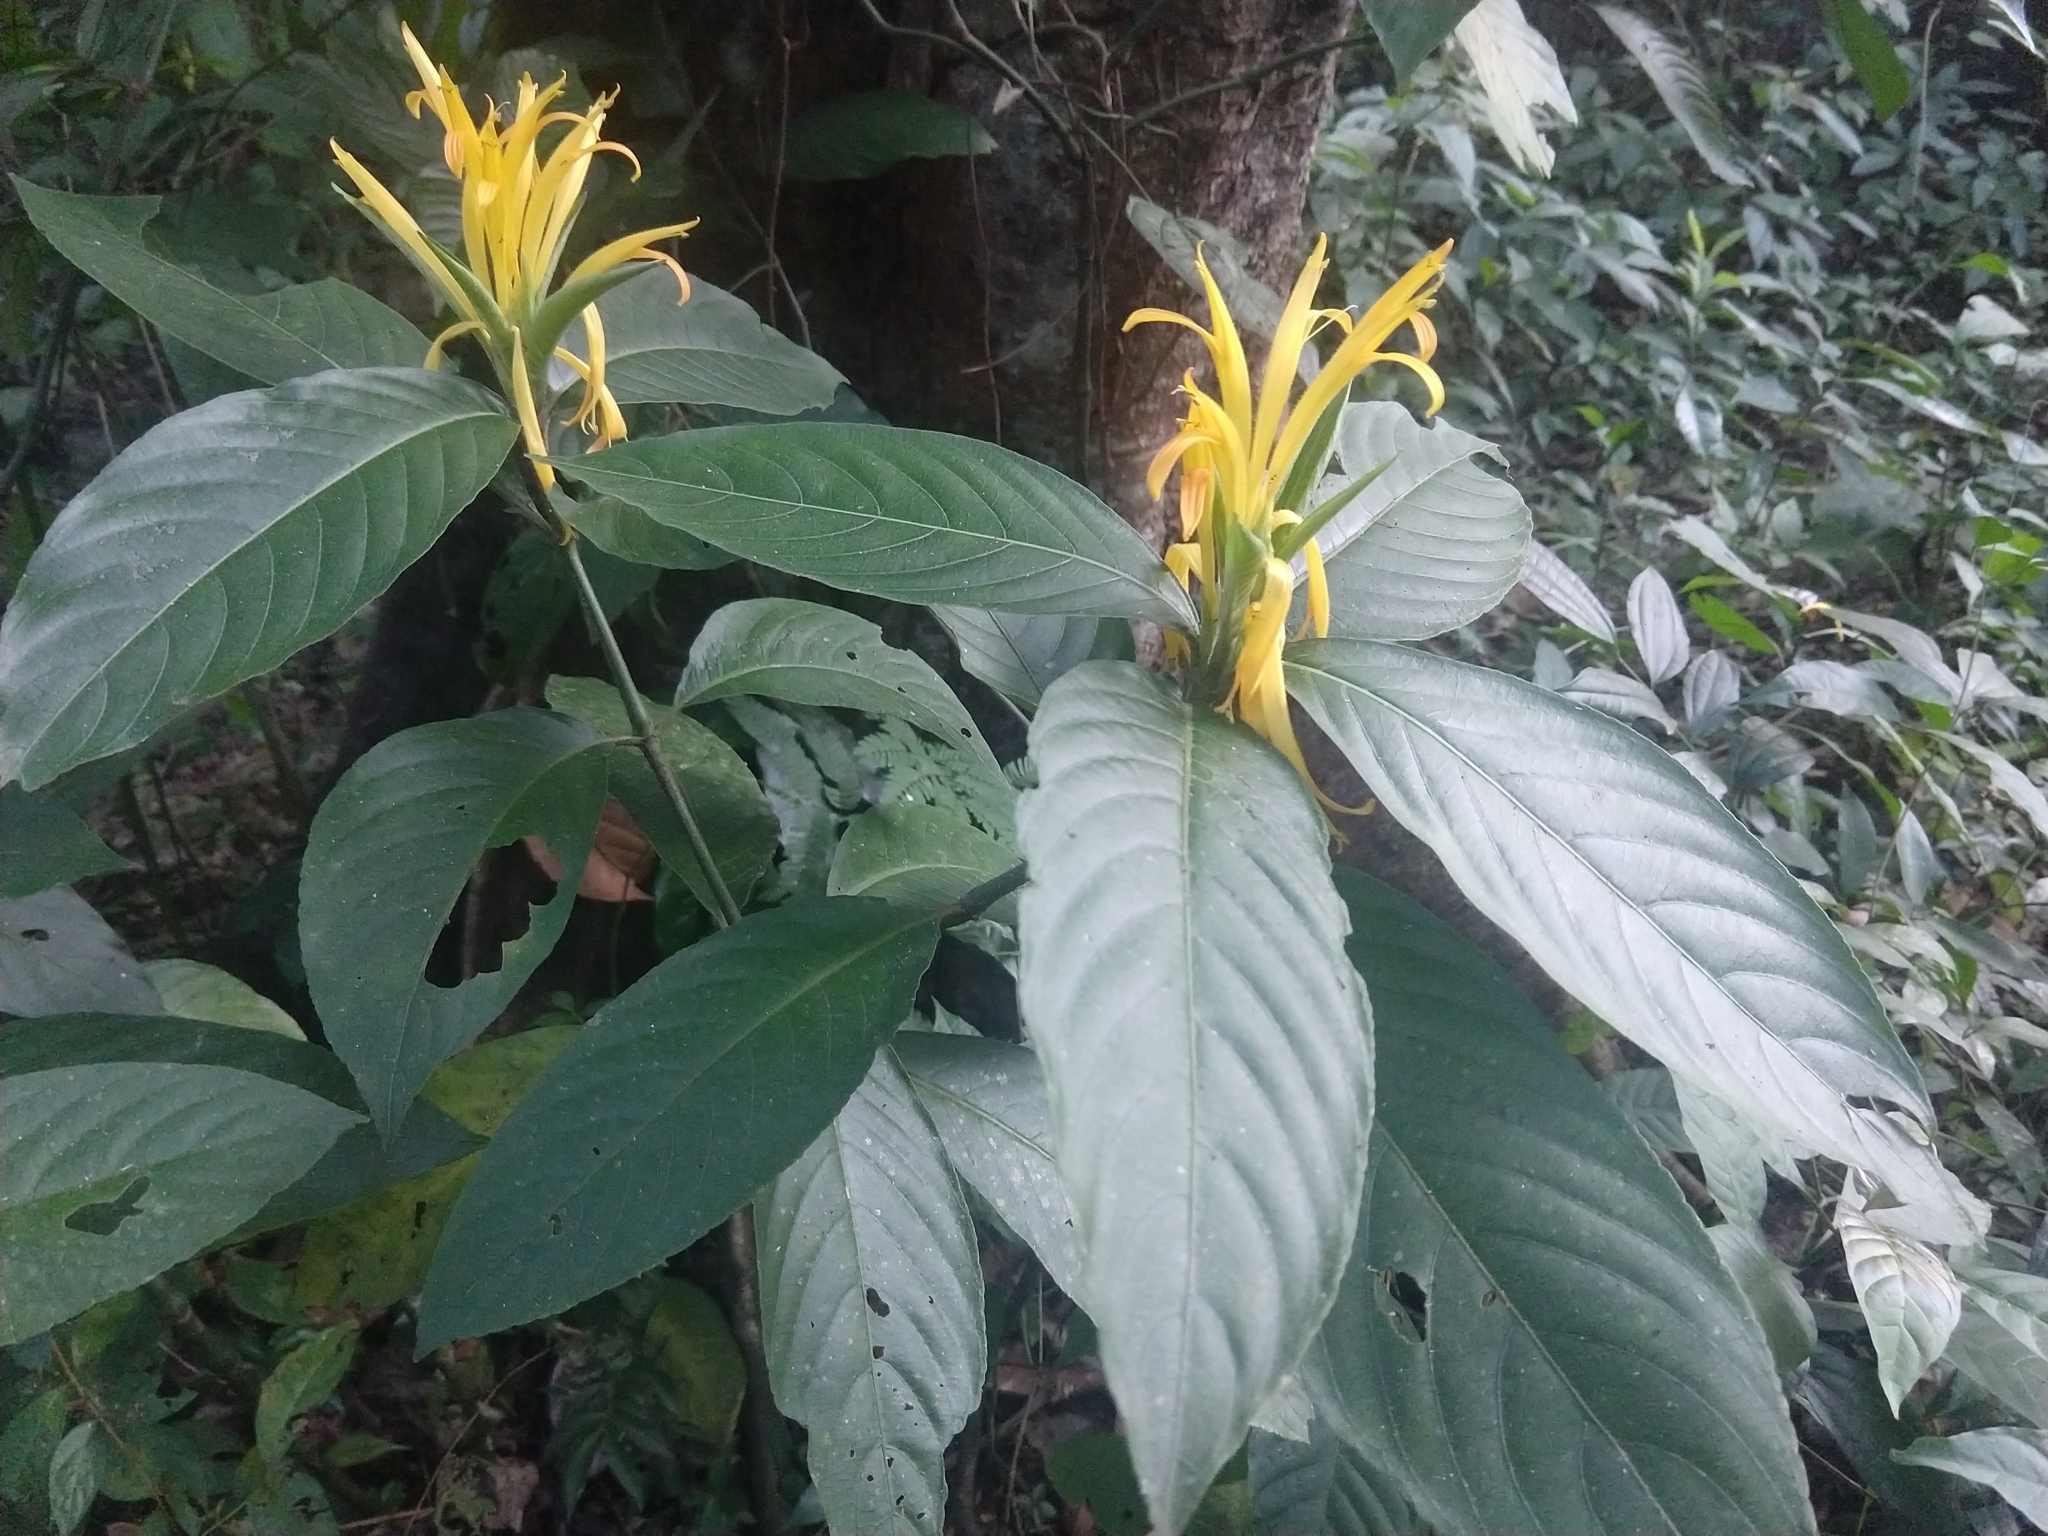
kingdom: Plantae
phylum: Tracheophyta
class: Magnoliopsida
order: Lamiales
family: Acanthaceae
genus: Justicia
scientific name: Justicia aurea
